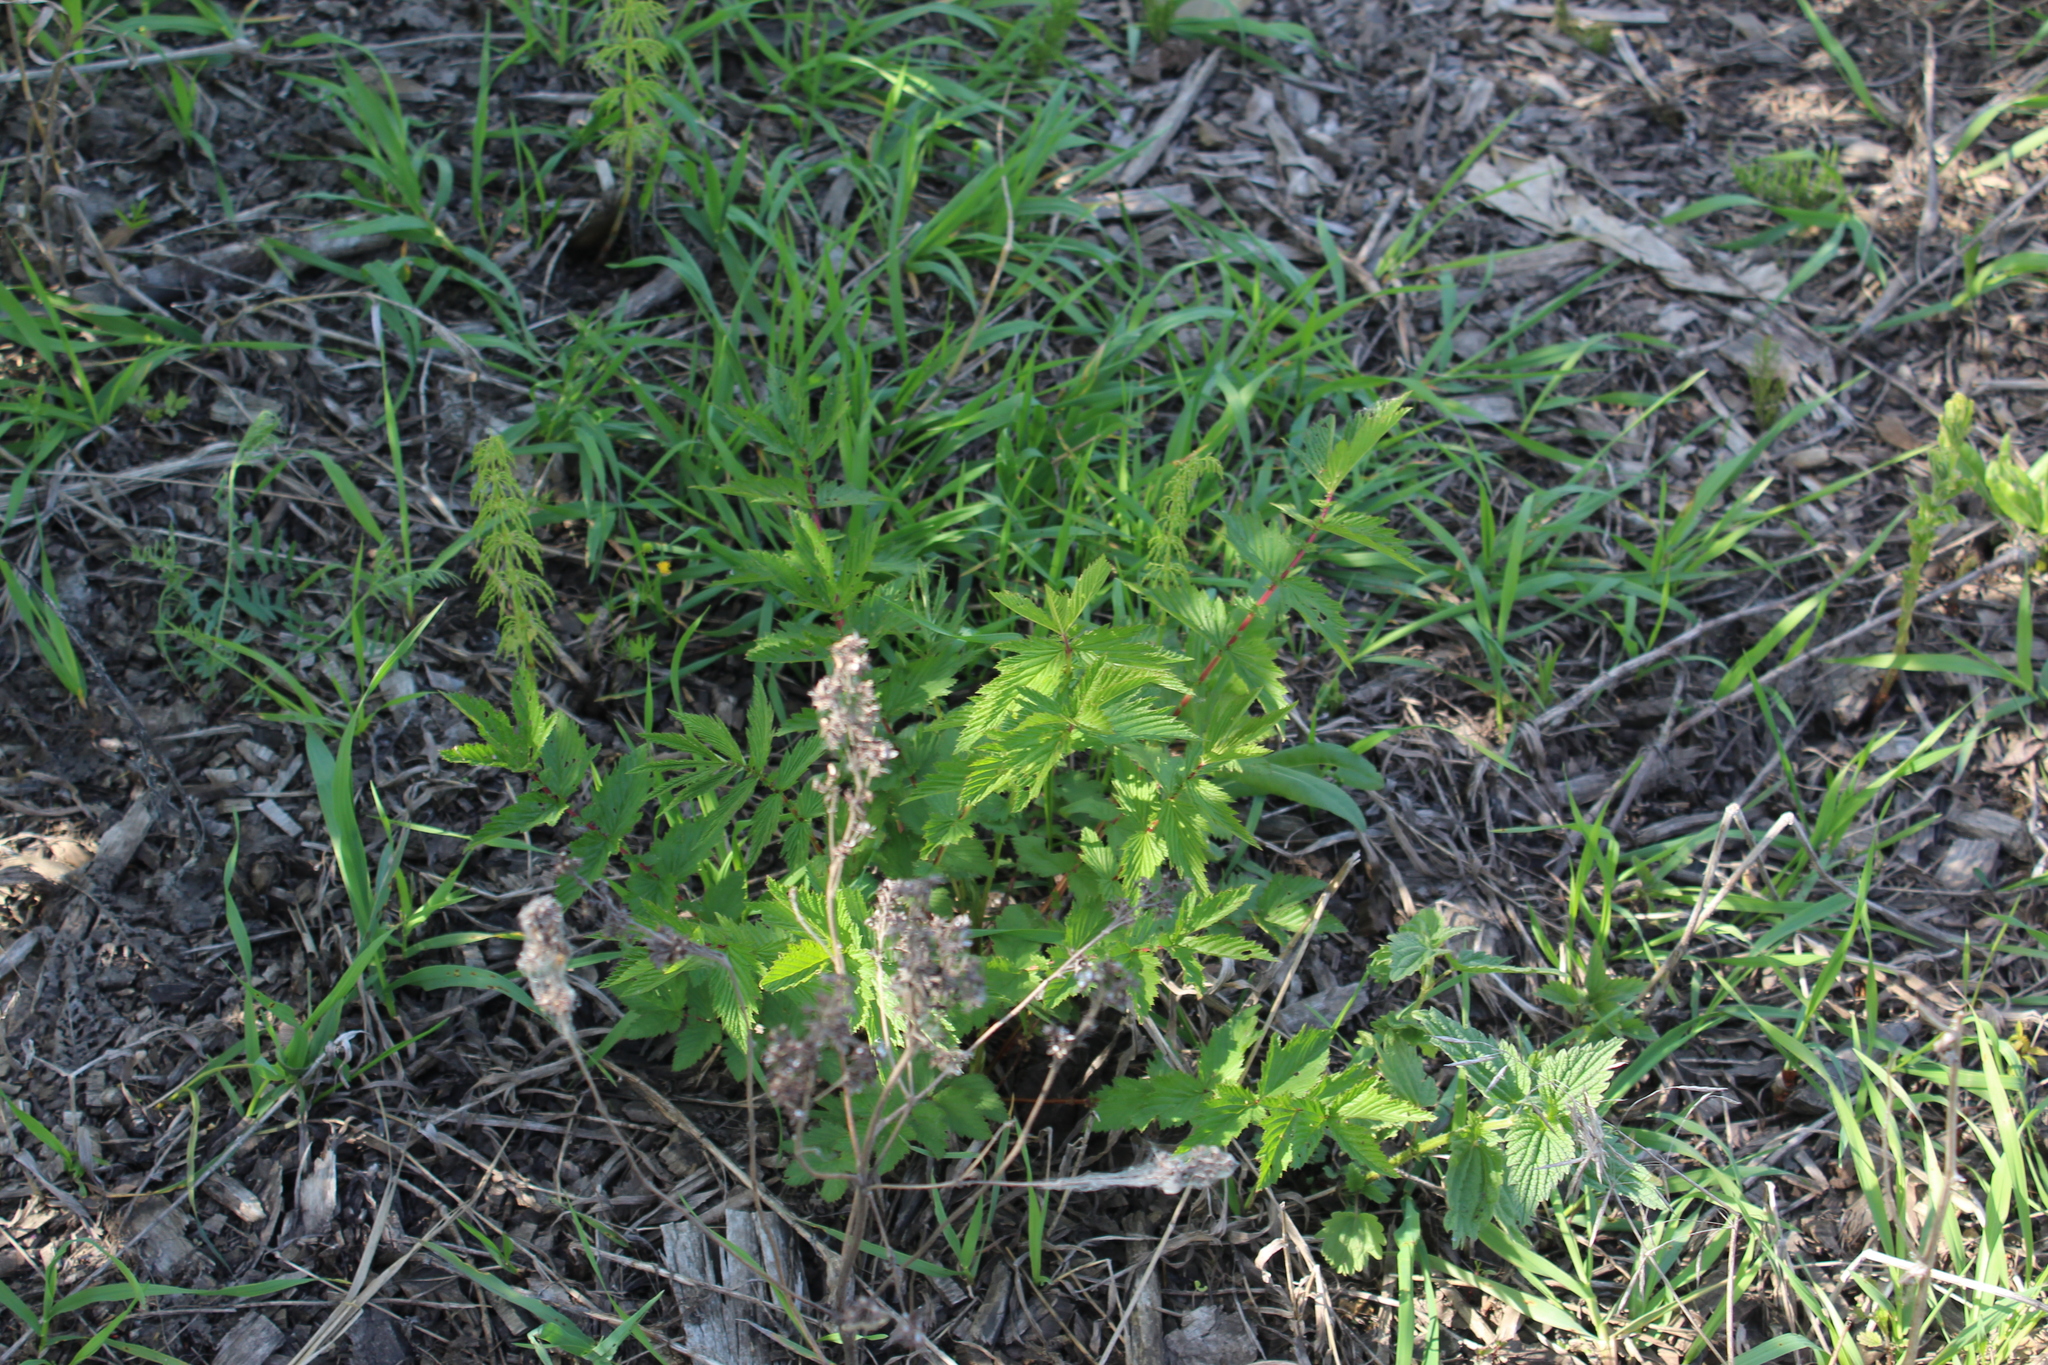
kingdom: Plantae
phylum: Tracheophyta
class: Magnoliopsida
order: Rosales
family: Rosaceae
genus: Filipendula
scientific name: Filipendula ulmaria
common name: Meadowsweet
